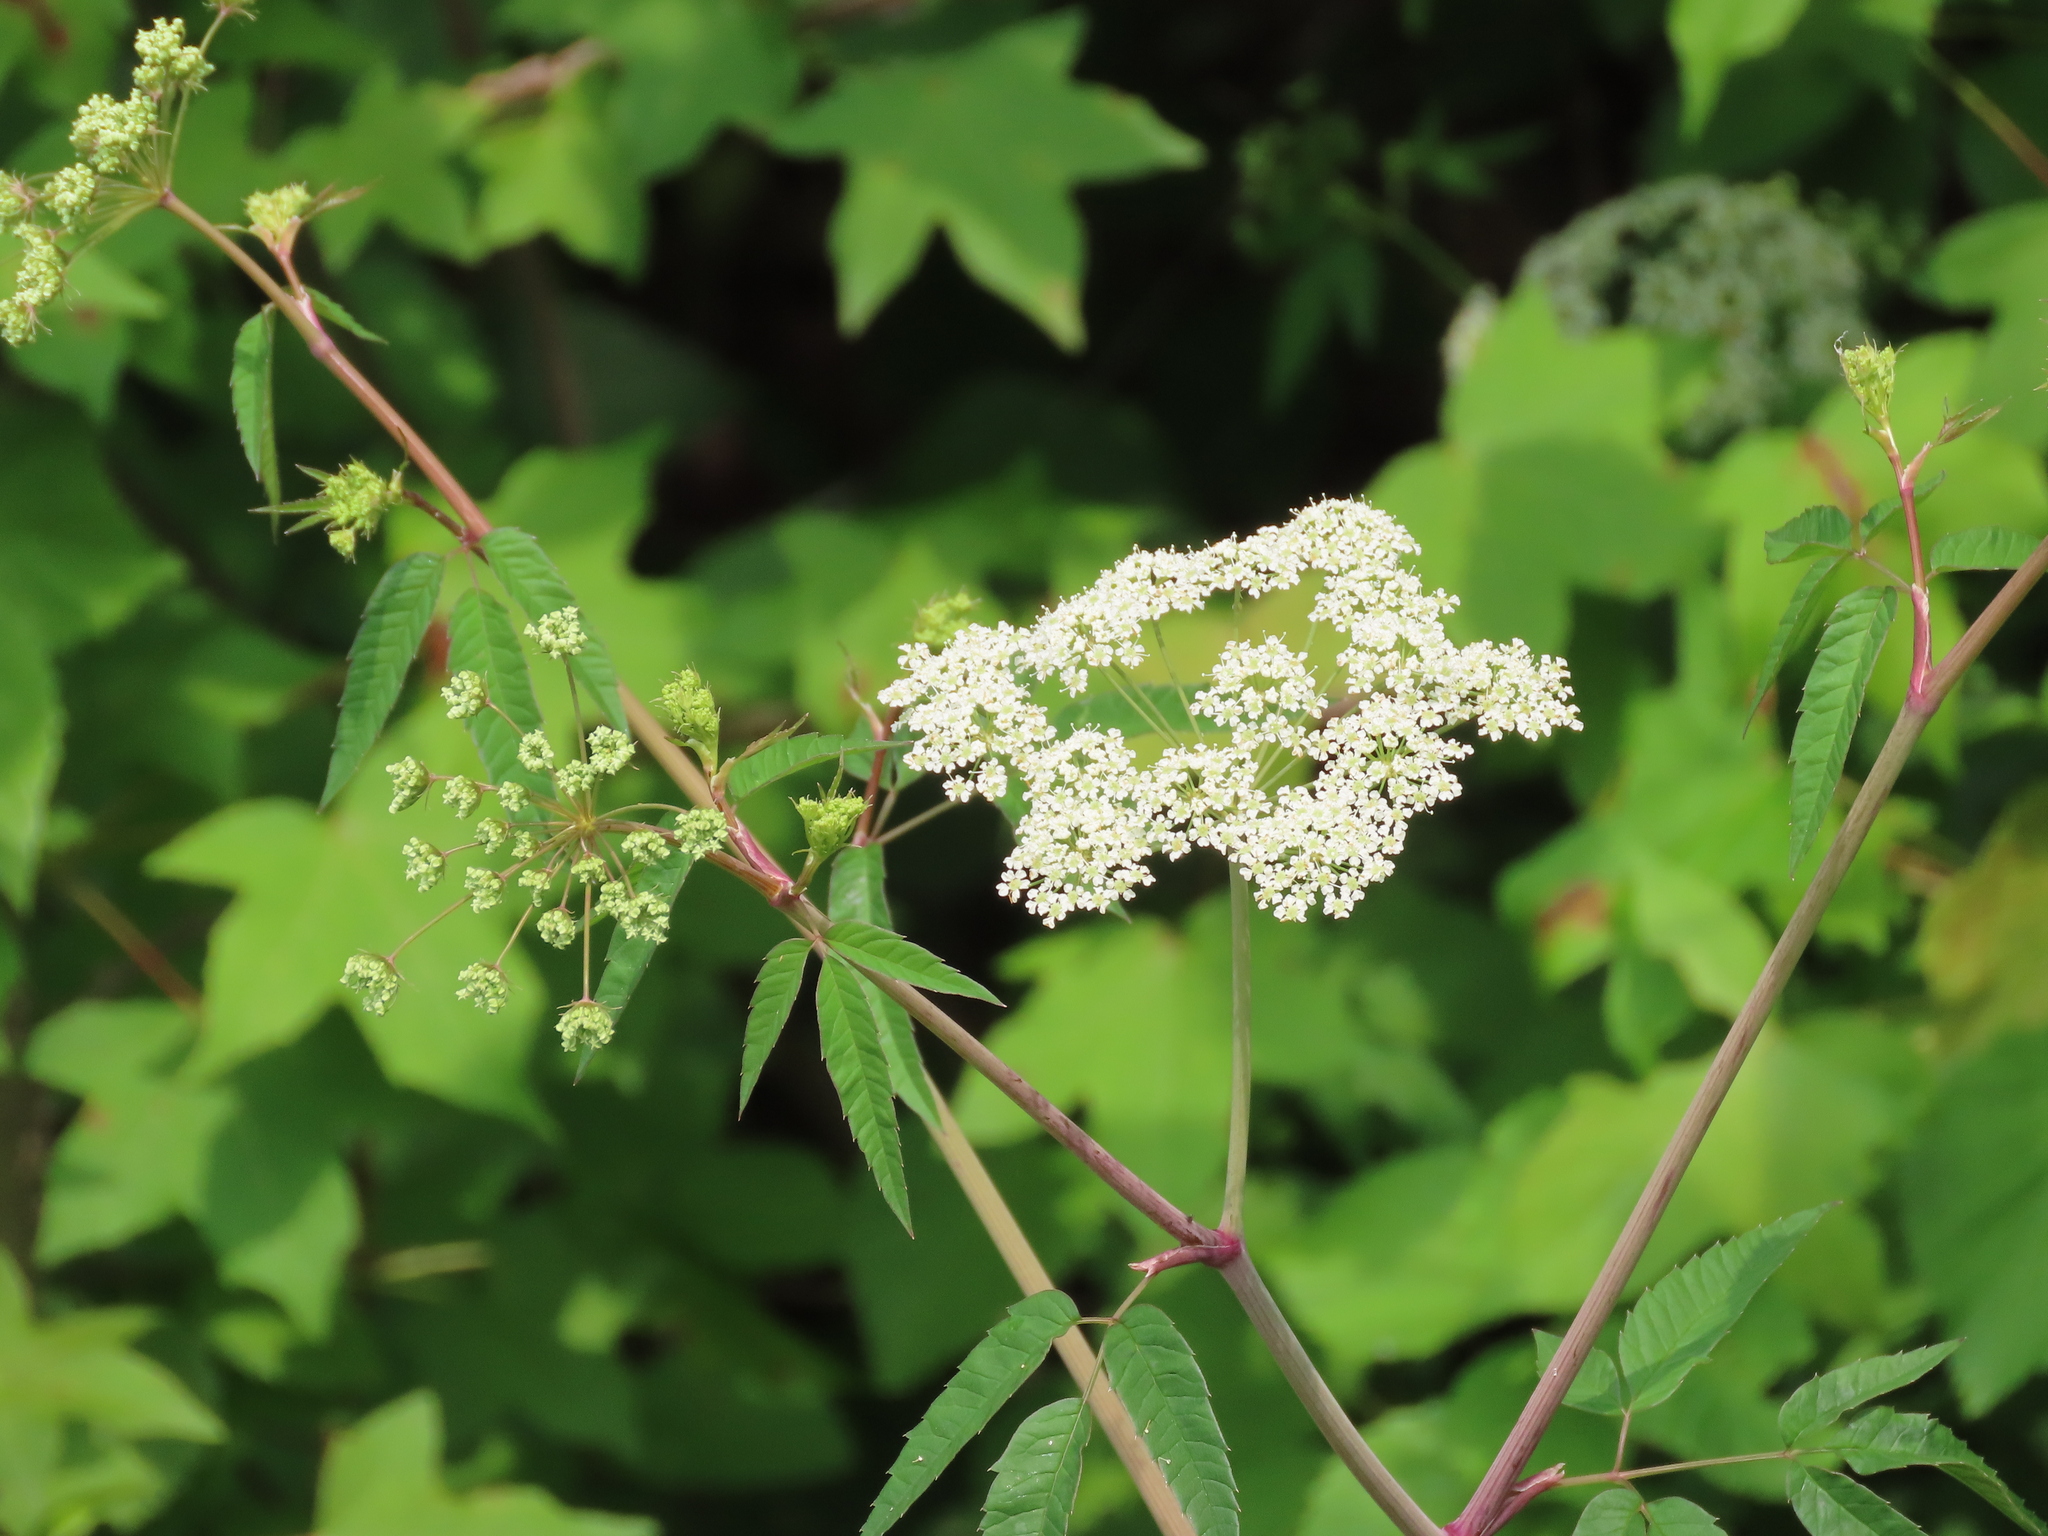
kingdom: Plantae
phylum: Tracheophyta
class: Magnoliopsida
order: Apiales
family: Apiaceae
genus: Cicuta
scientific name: Cicuta maculata
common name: Spotted cowbane
